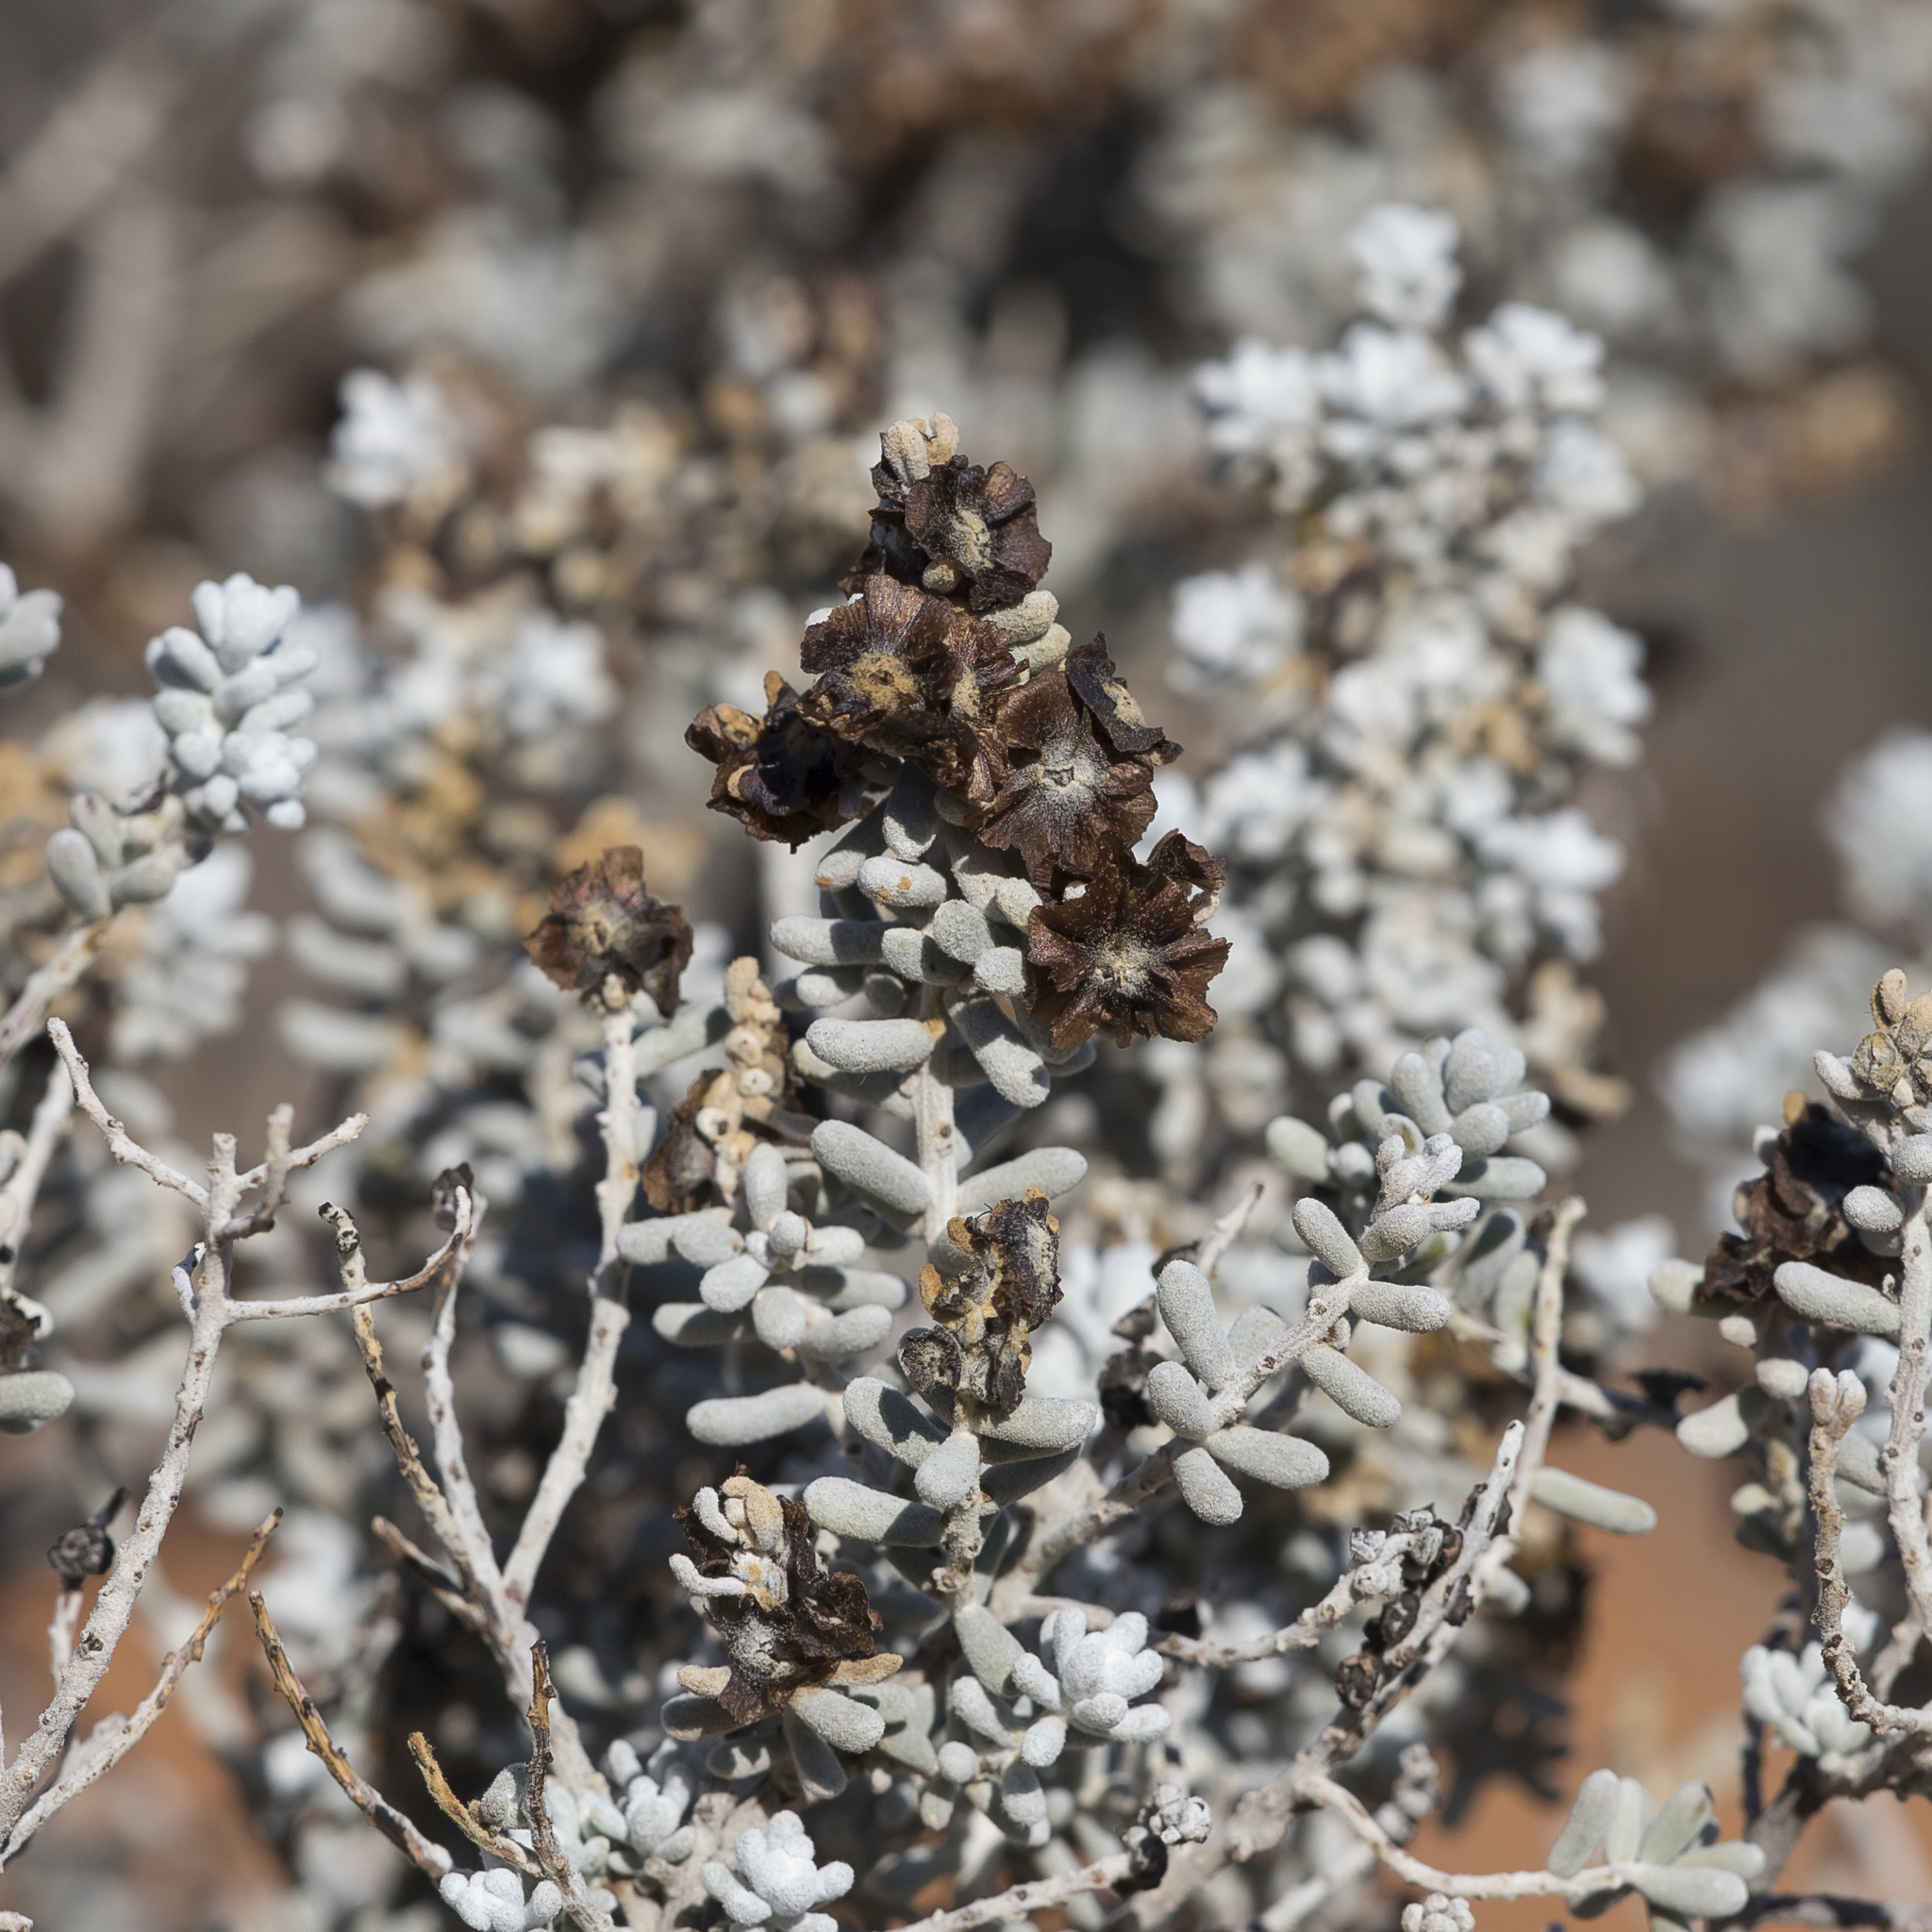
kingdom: Plantae
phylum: Tracheophyta
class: Magnoliopsida
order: Caryophyllales
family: Amaranthaceae
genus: Maireana
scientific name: Maireana sedifolia
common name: Hoary bluebush
